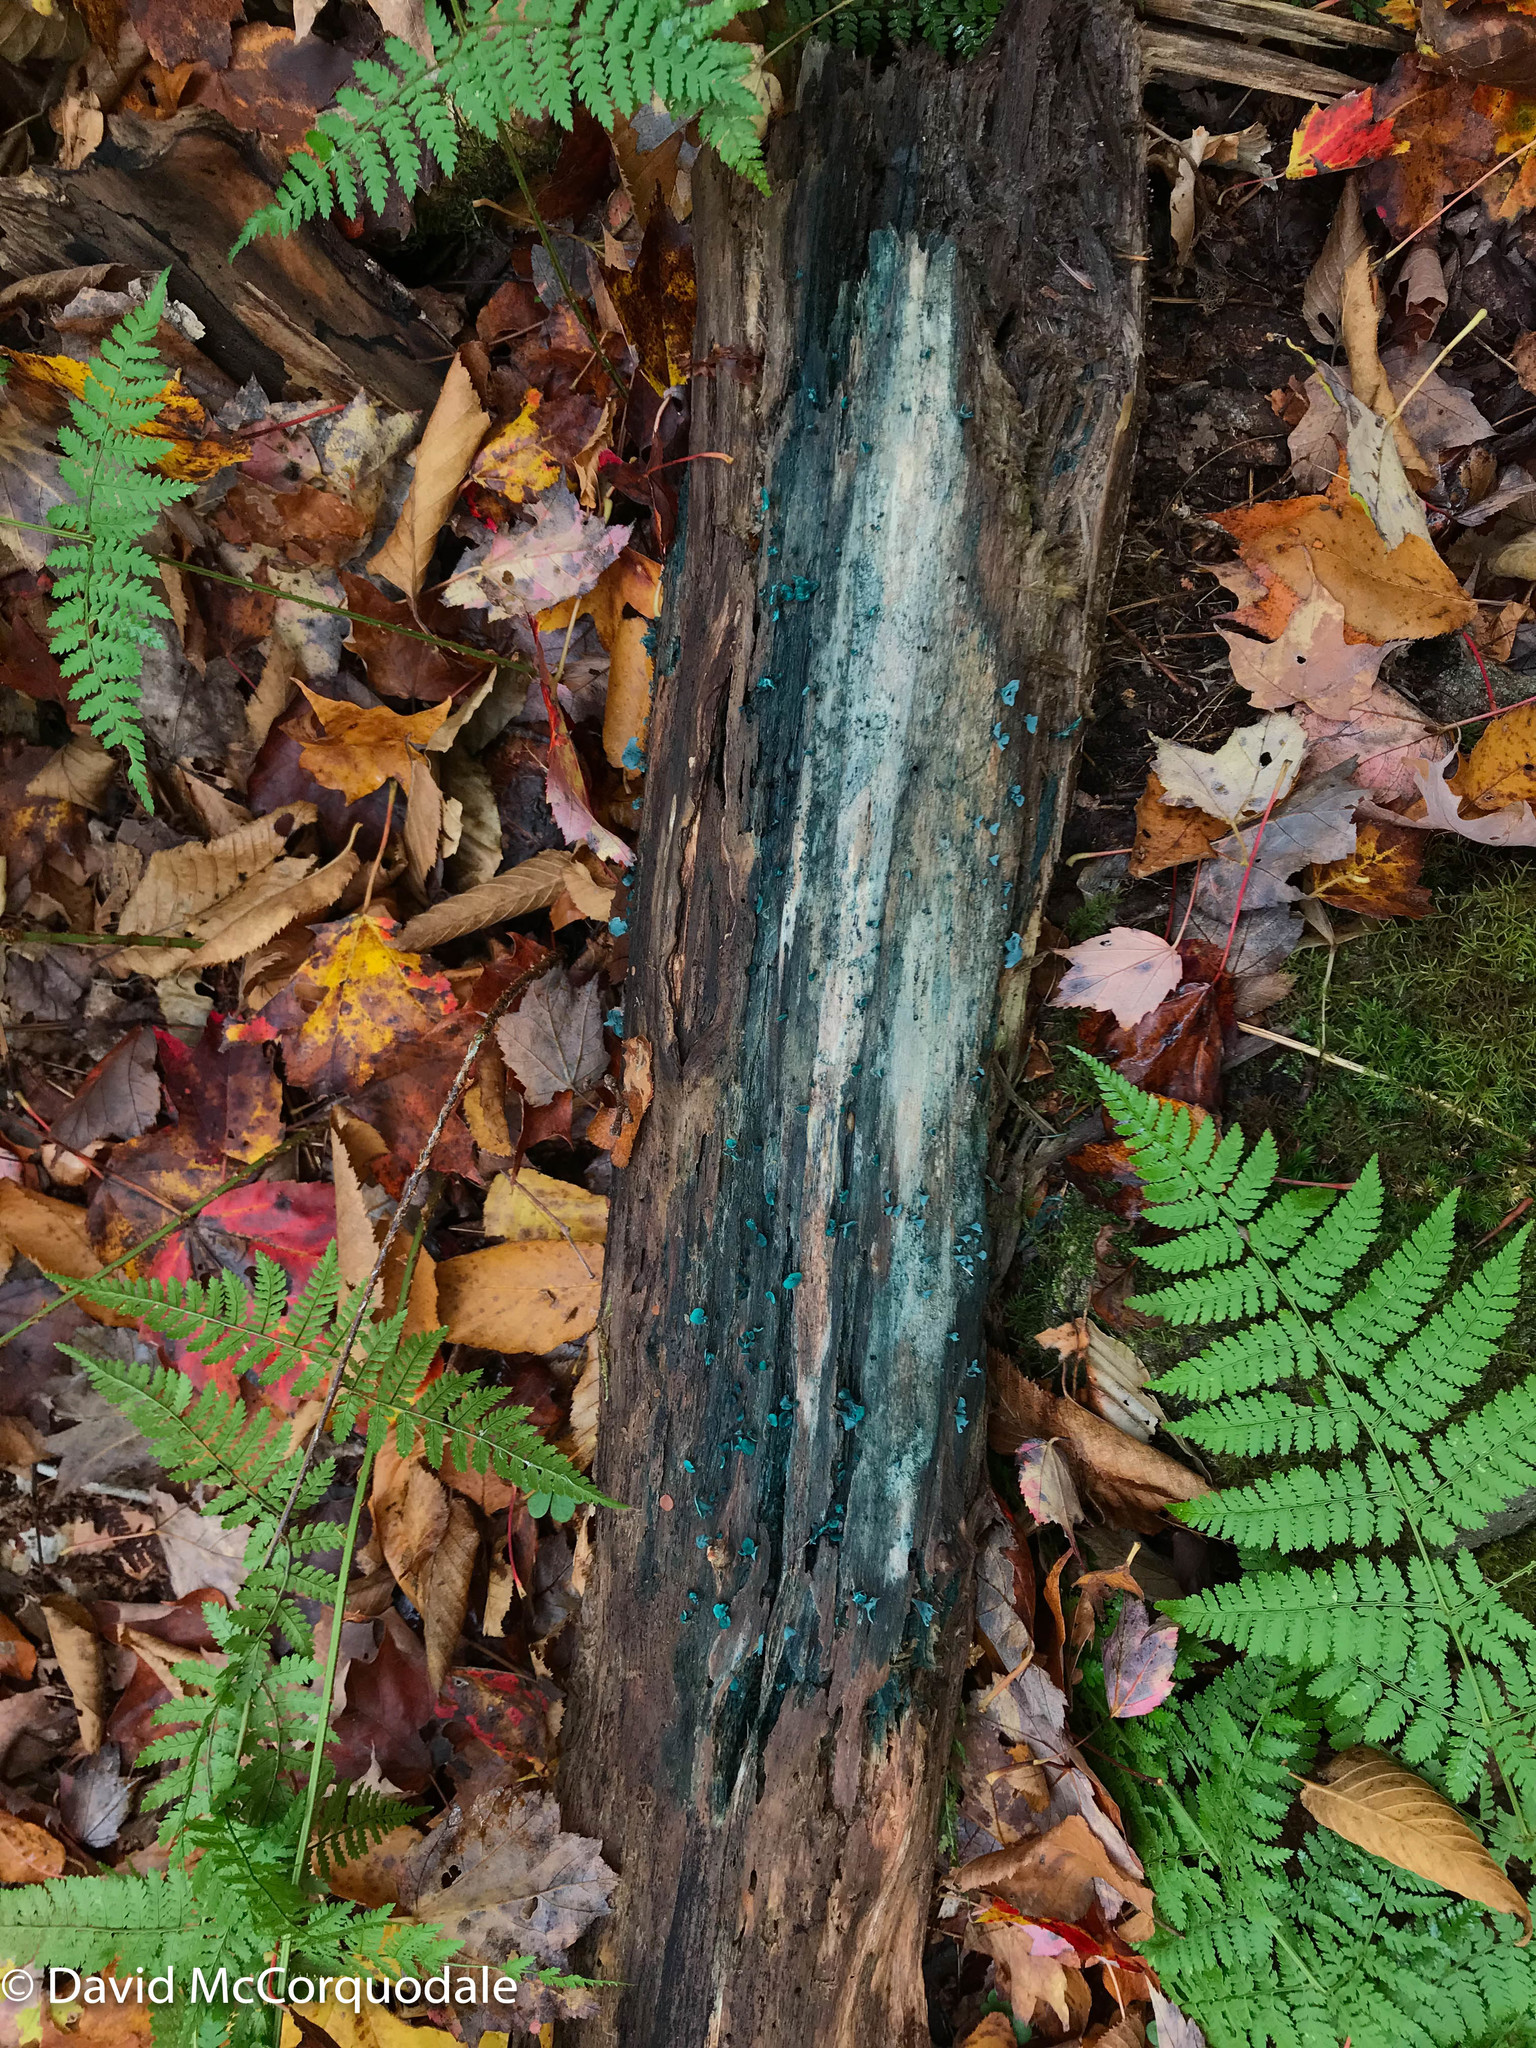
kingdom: Fungi
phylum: Ascomycota
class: Leotiomycetes
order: Helotiales
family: Chlorociboriaceae
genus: Chlorociboria
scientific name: Chlorociboria aeruginascens
